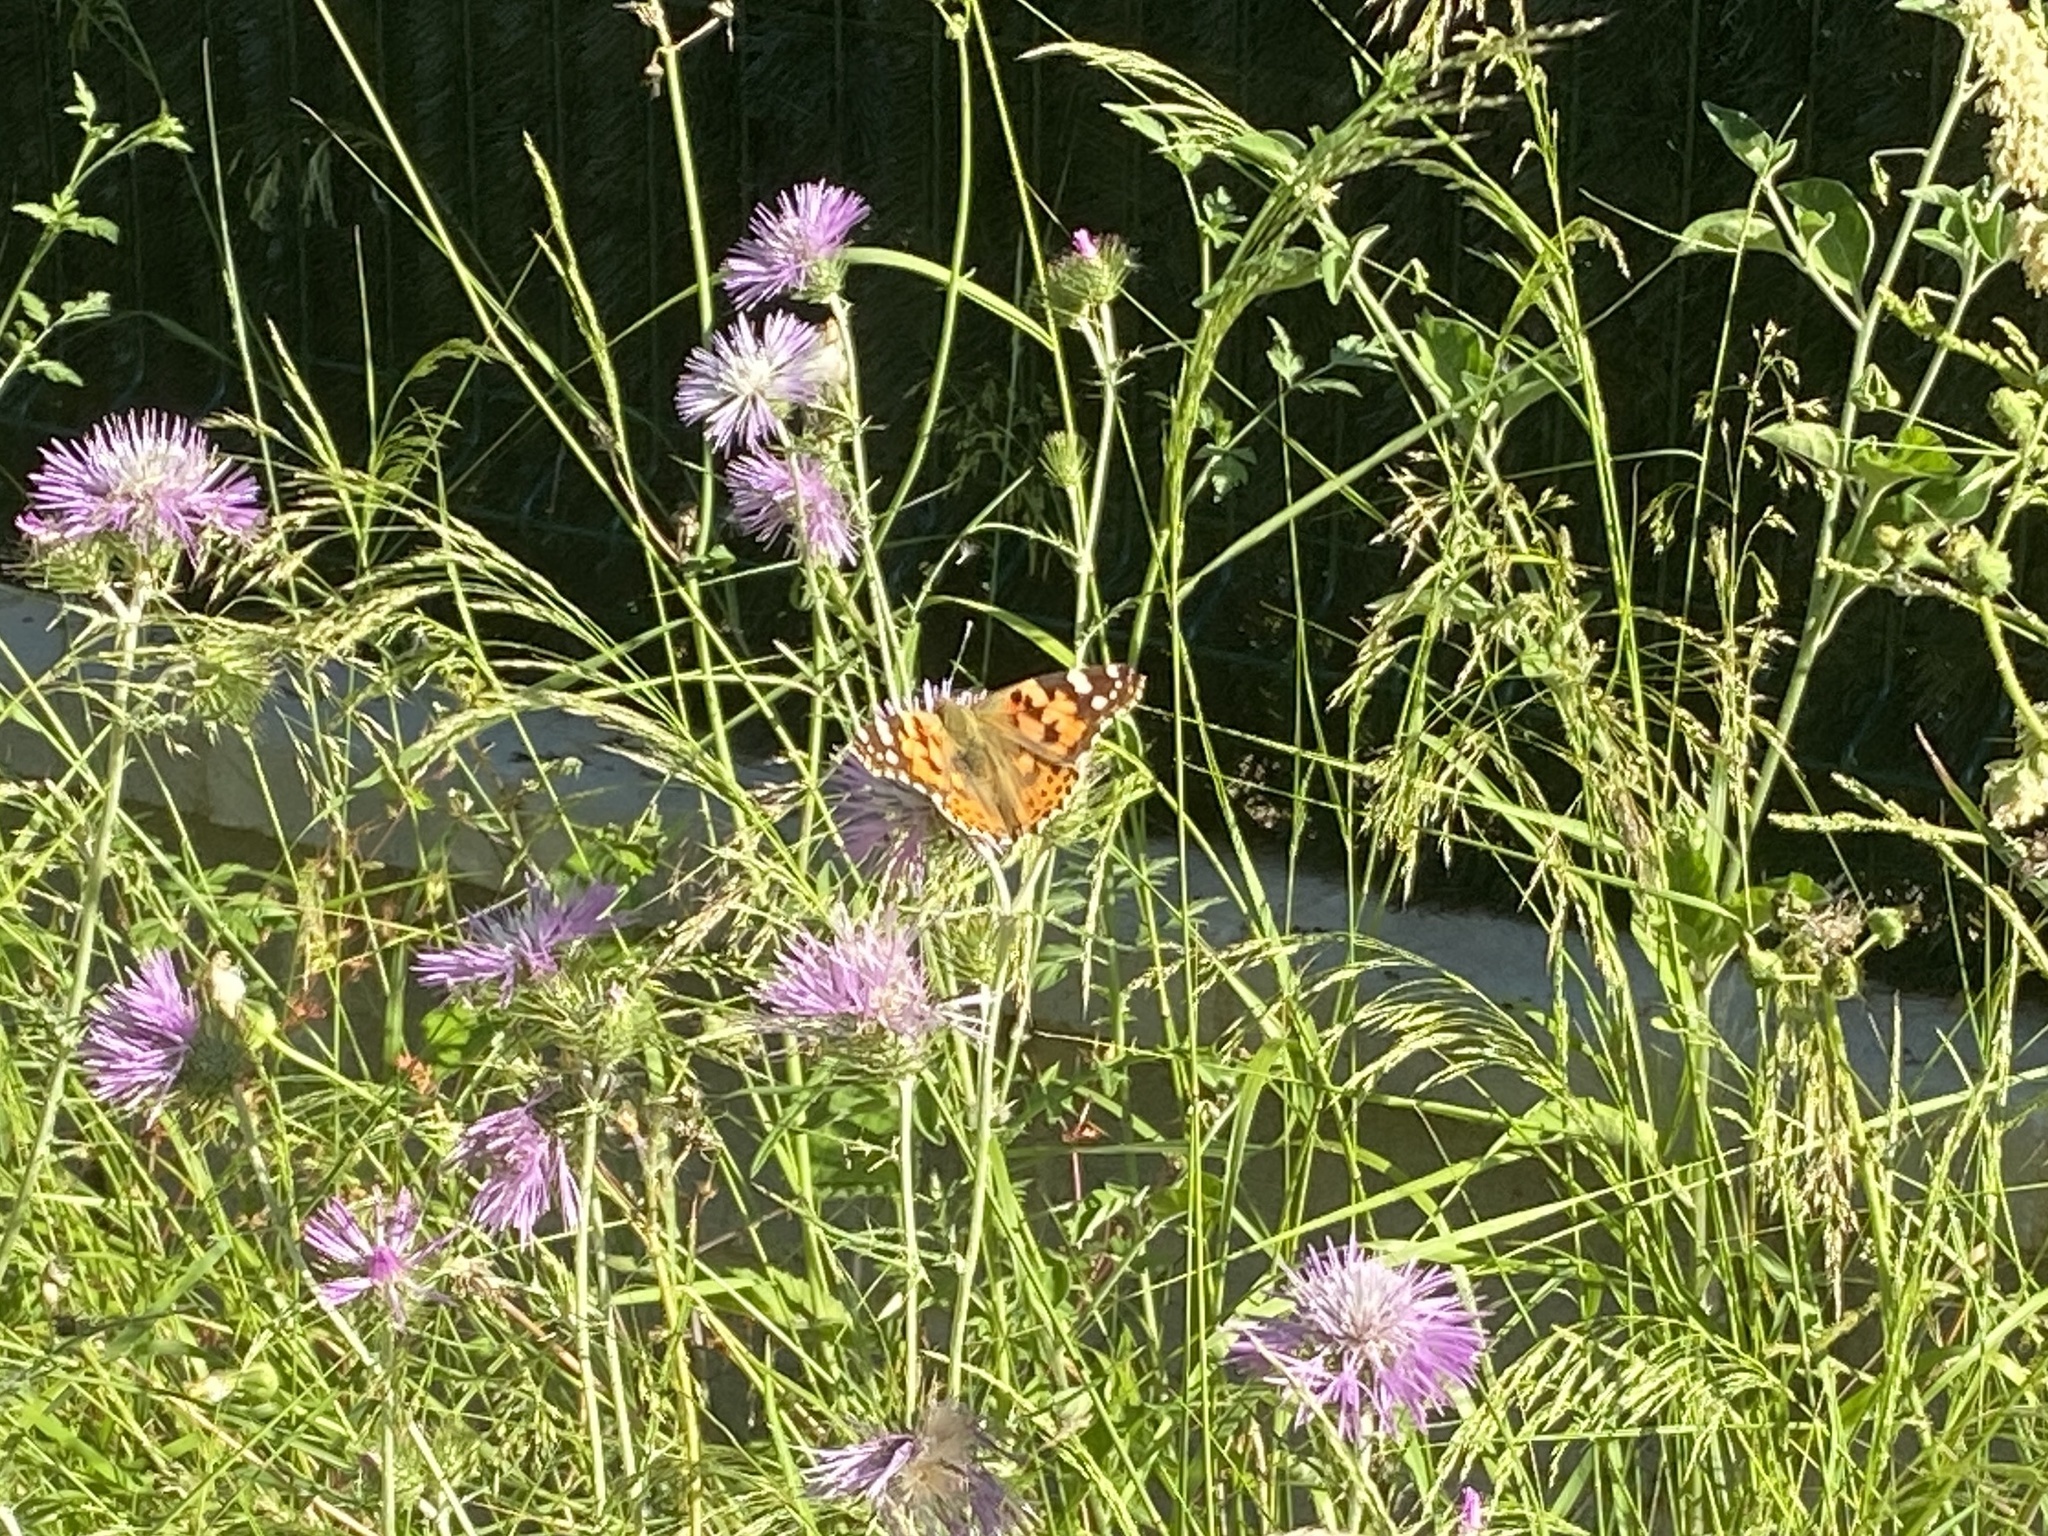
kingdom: Animalia
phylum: Arthropoda
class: Insecta
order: Lepidoptera
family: Nymphalidae
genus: Vanessa
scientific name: Vanessa cardui
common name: Painted lady
